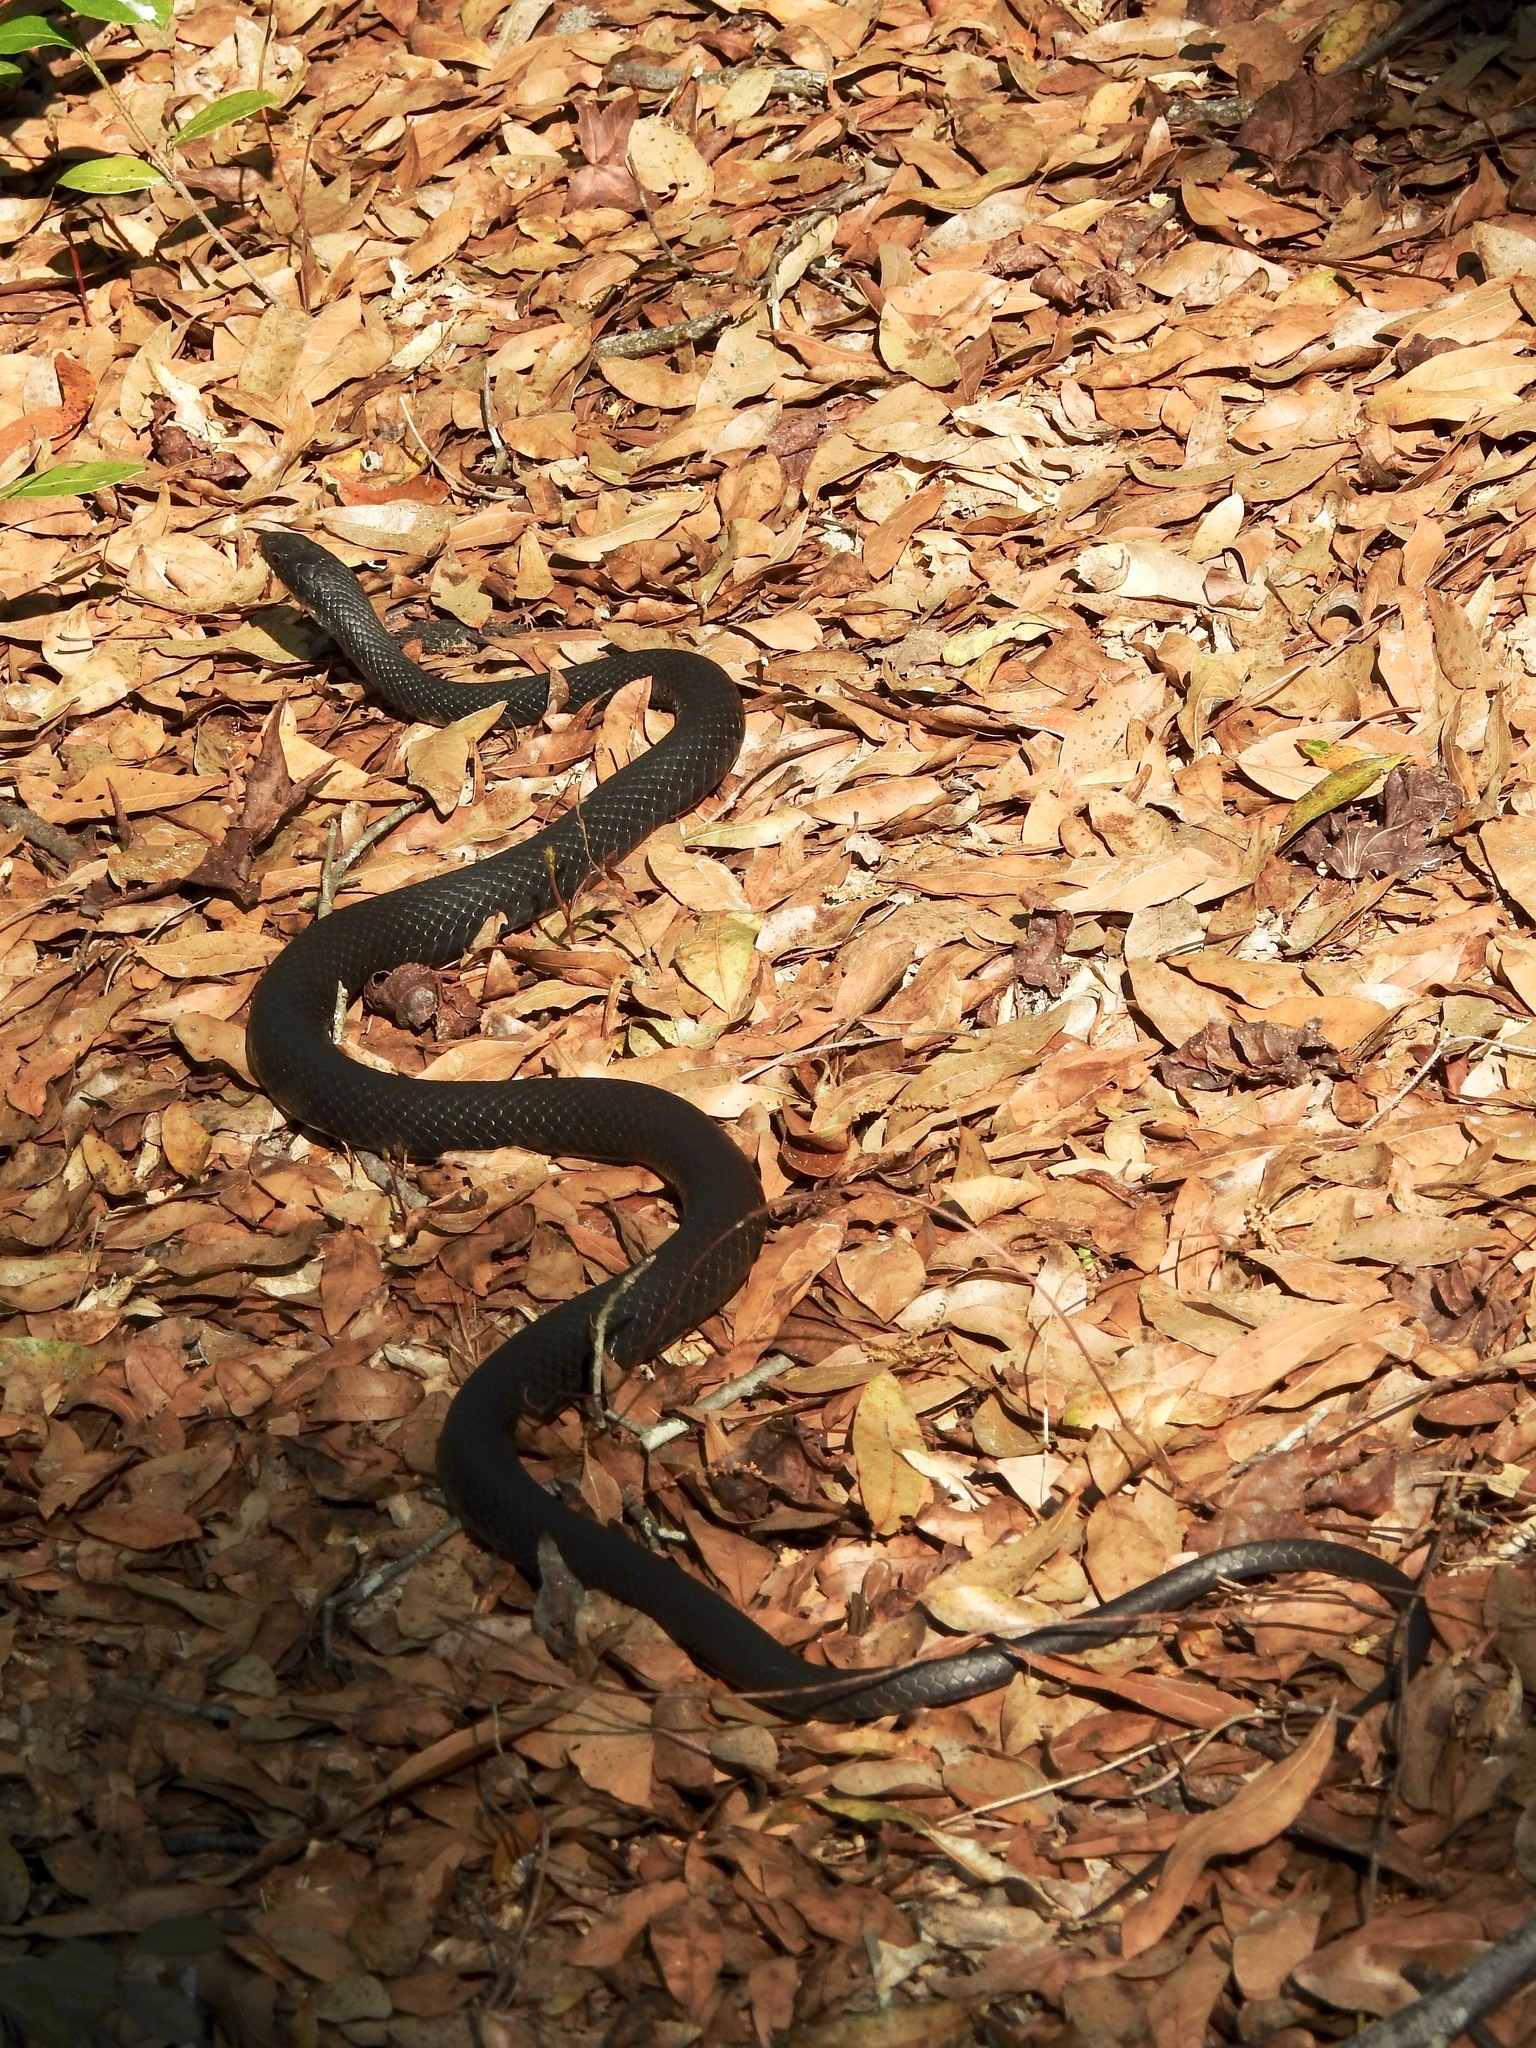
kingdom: Animalia
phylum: Chordata
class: Squamata
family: Colubridae
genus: Coluber
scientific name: Coluber constrictor
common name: Eastern racer
